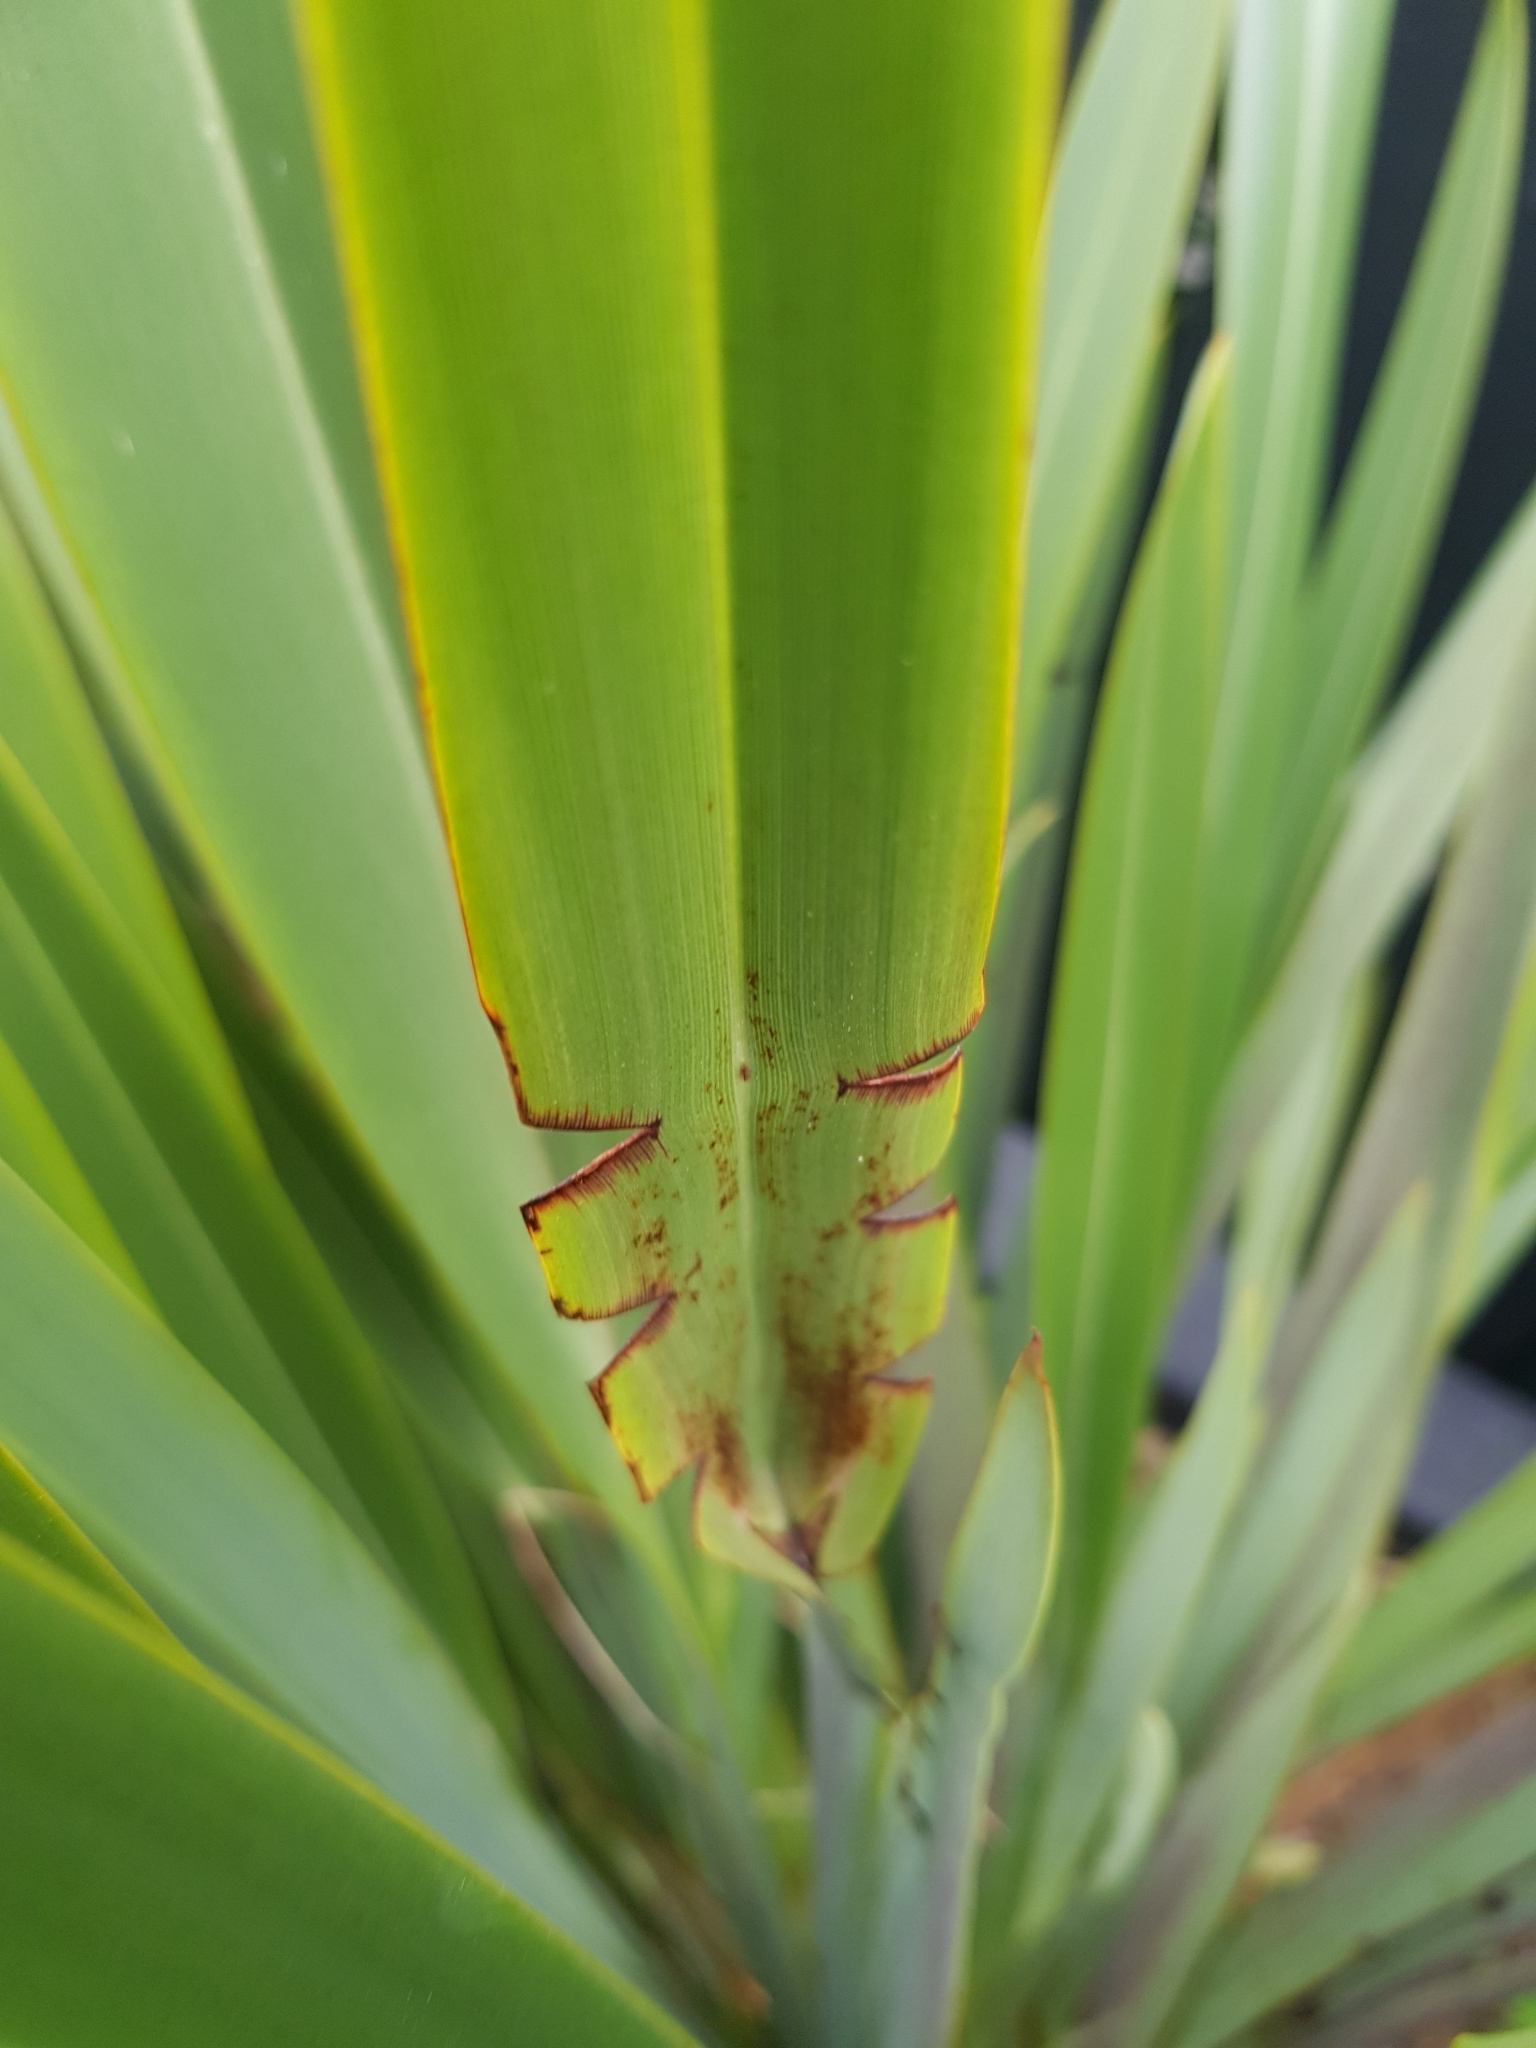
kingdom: Animalia
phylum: Arthropoda
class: Insecta
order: Lepidoptera
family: Noctuidae
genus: Ichneutica
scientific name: Ichneutica
